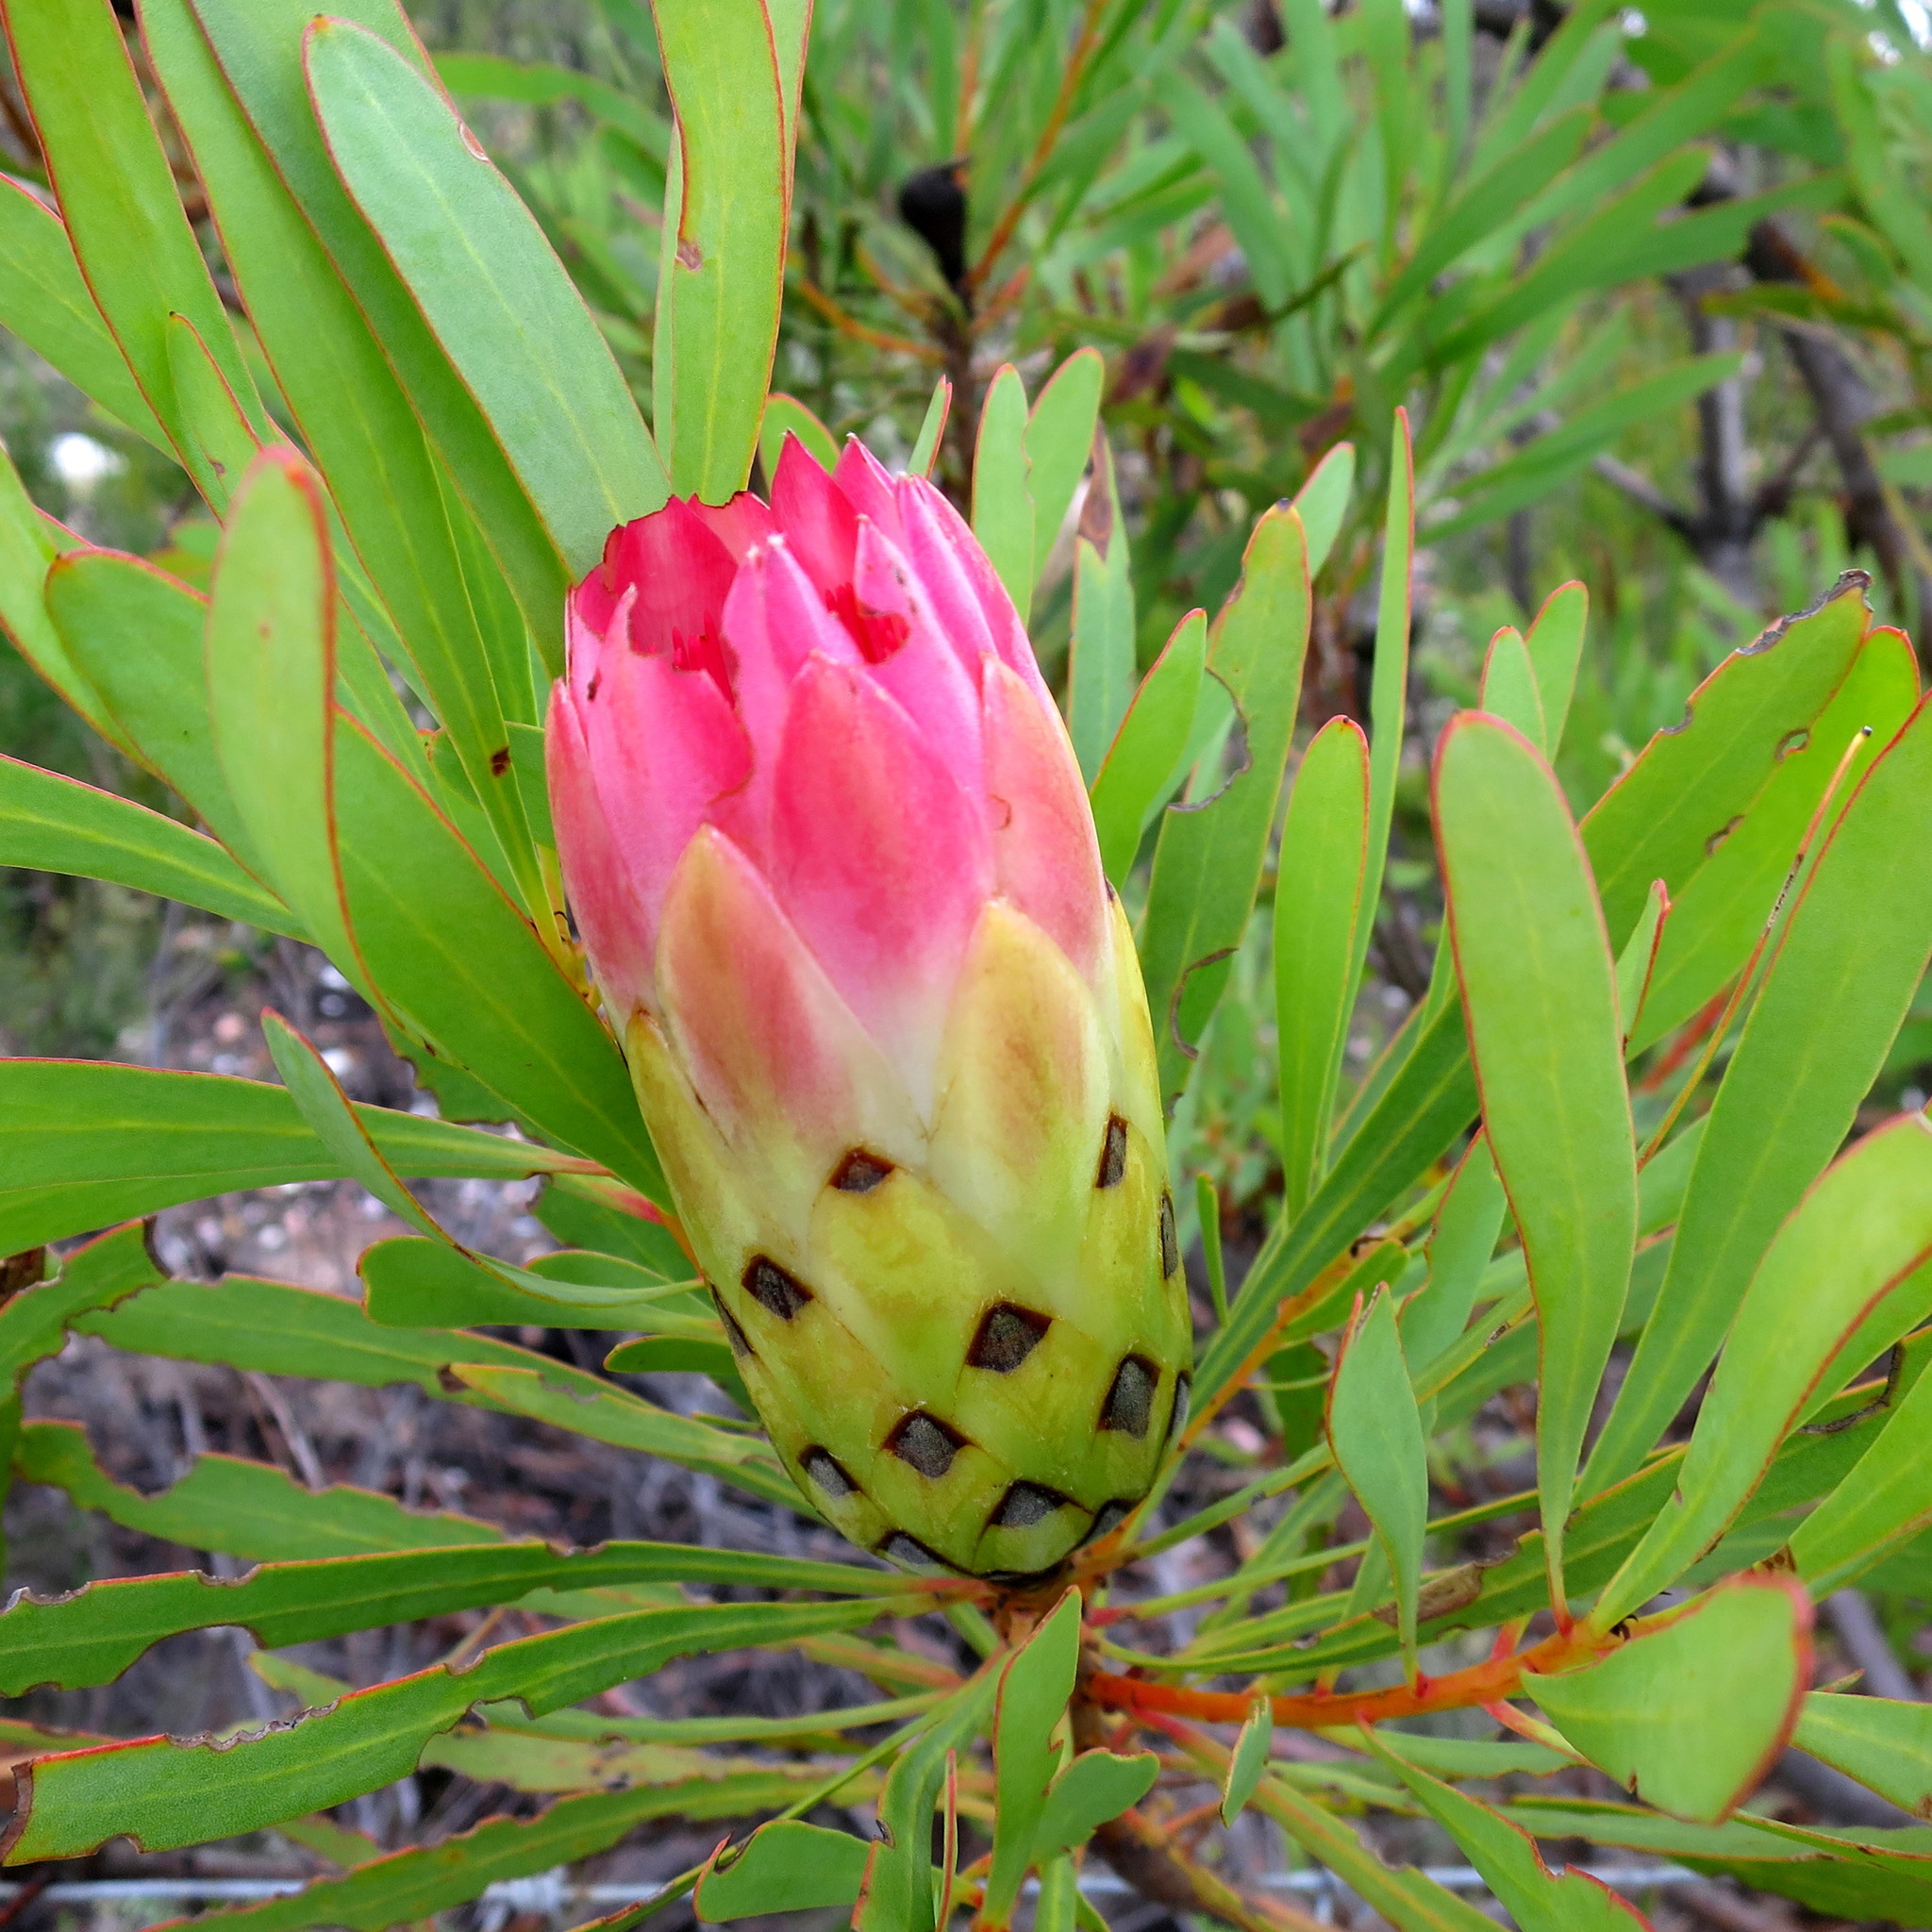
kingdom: Plantae
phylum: Tracheophyta
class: Magnoliopsida
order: Proteales
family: Proteaceae
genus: Protea
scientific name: Protea repens
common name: Sugarbush
